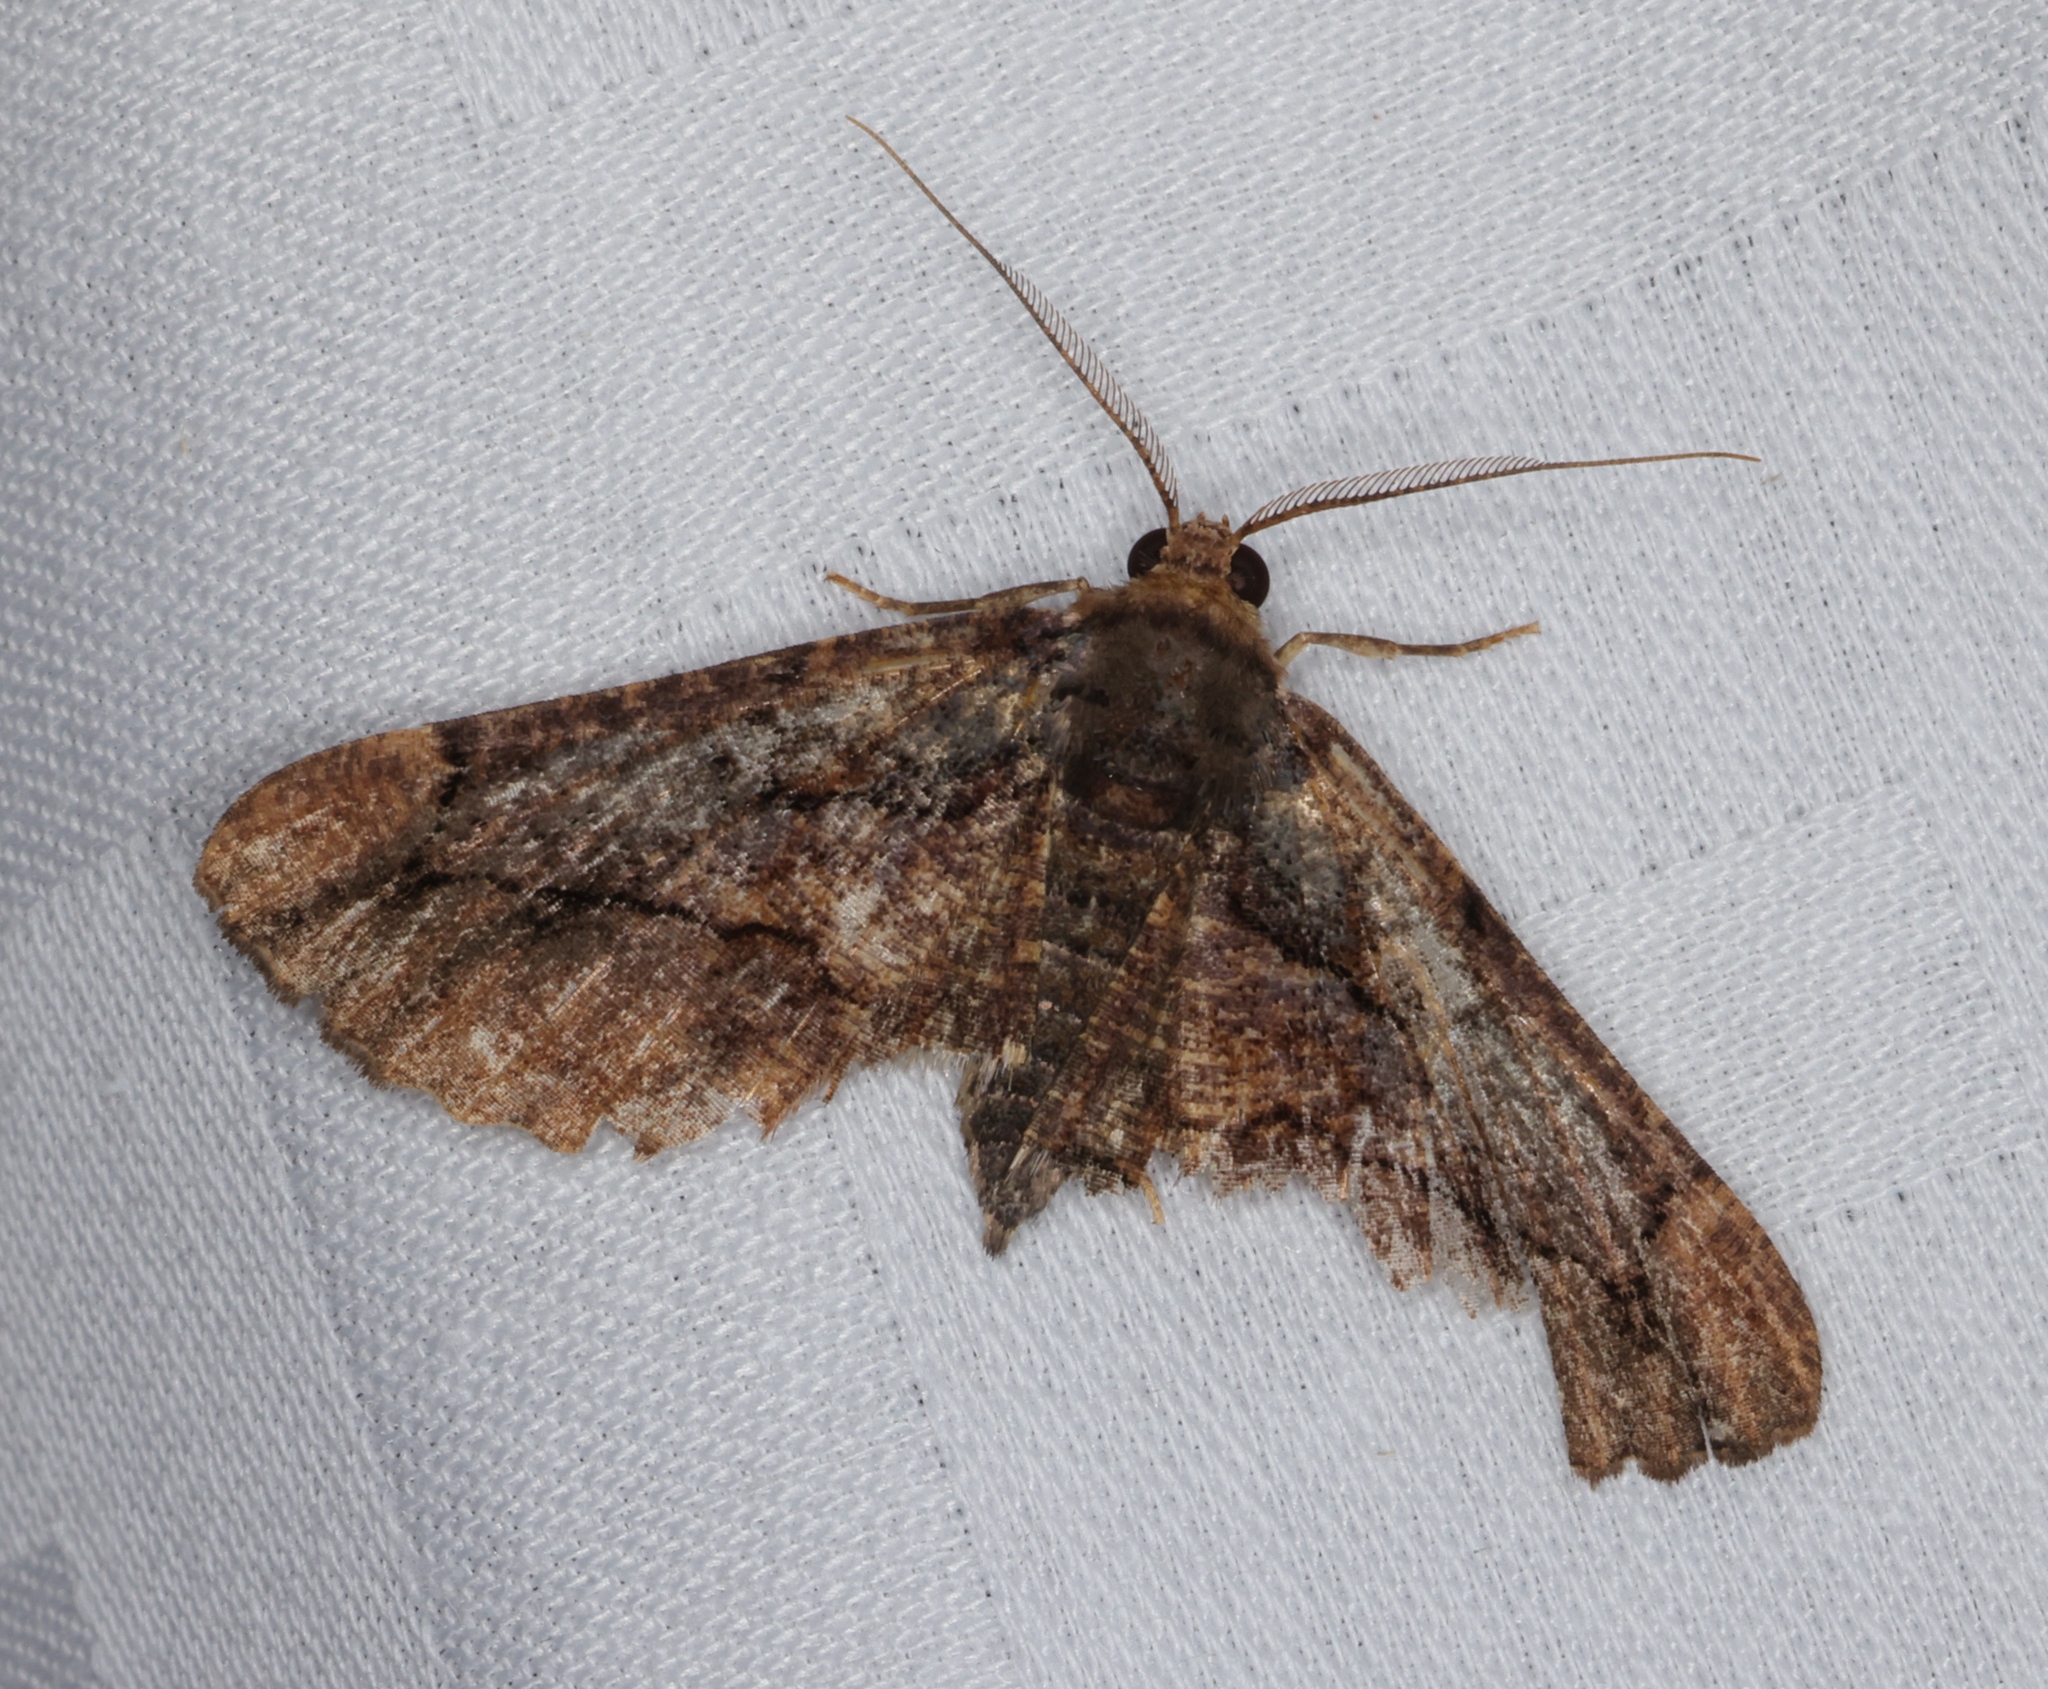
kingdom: Animalia
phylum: Arthropoda
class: Insecta
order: Lepidoptera
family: Geometridae
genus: Dasyboarmia
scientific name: Dasyboarmia subpilosa
